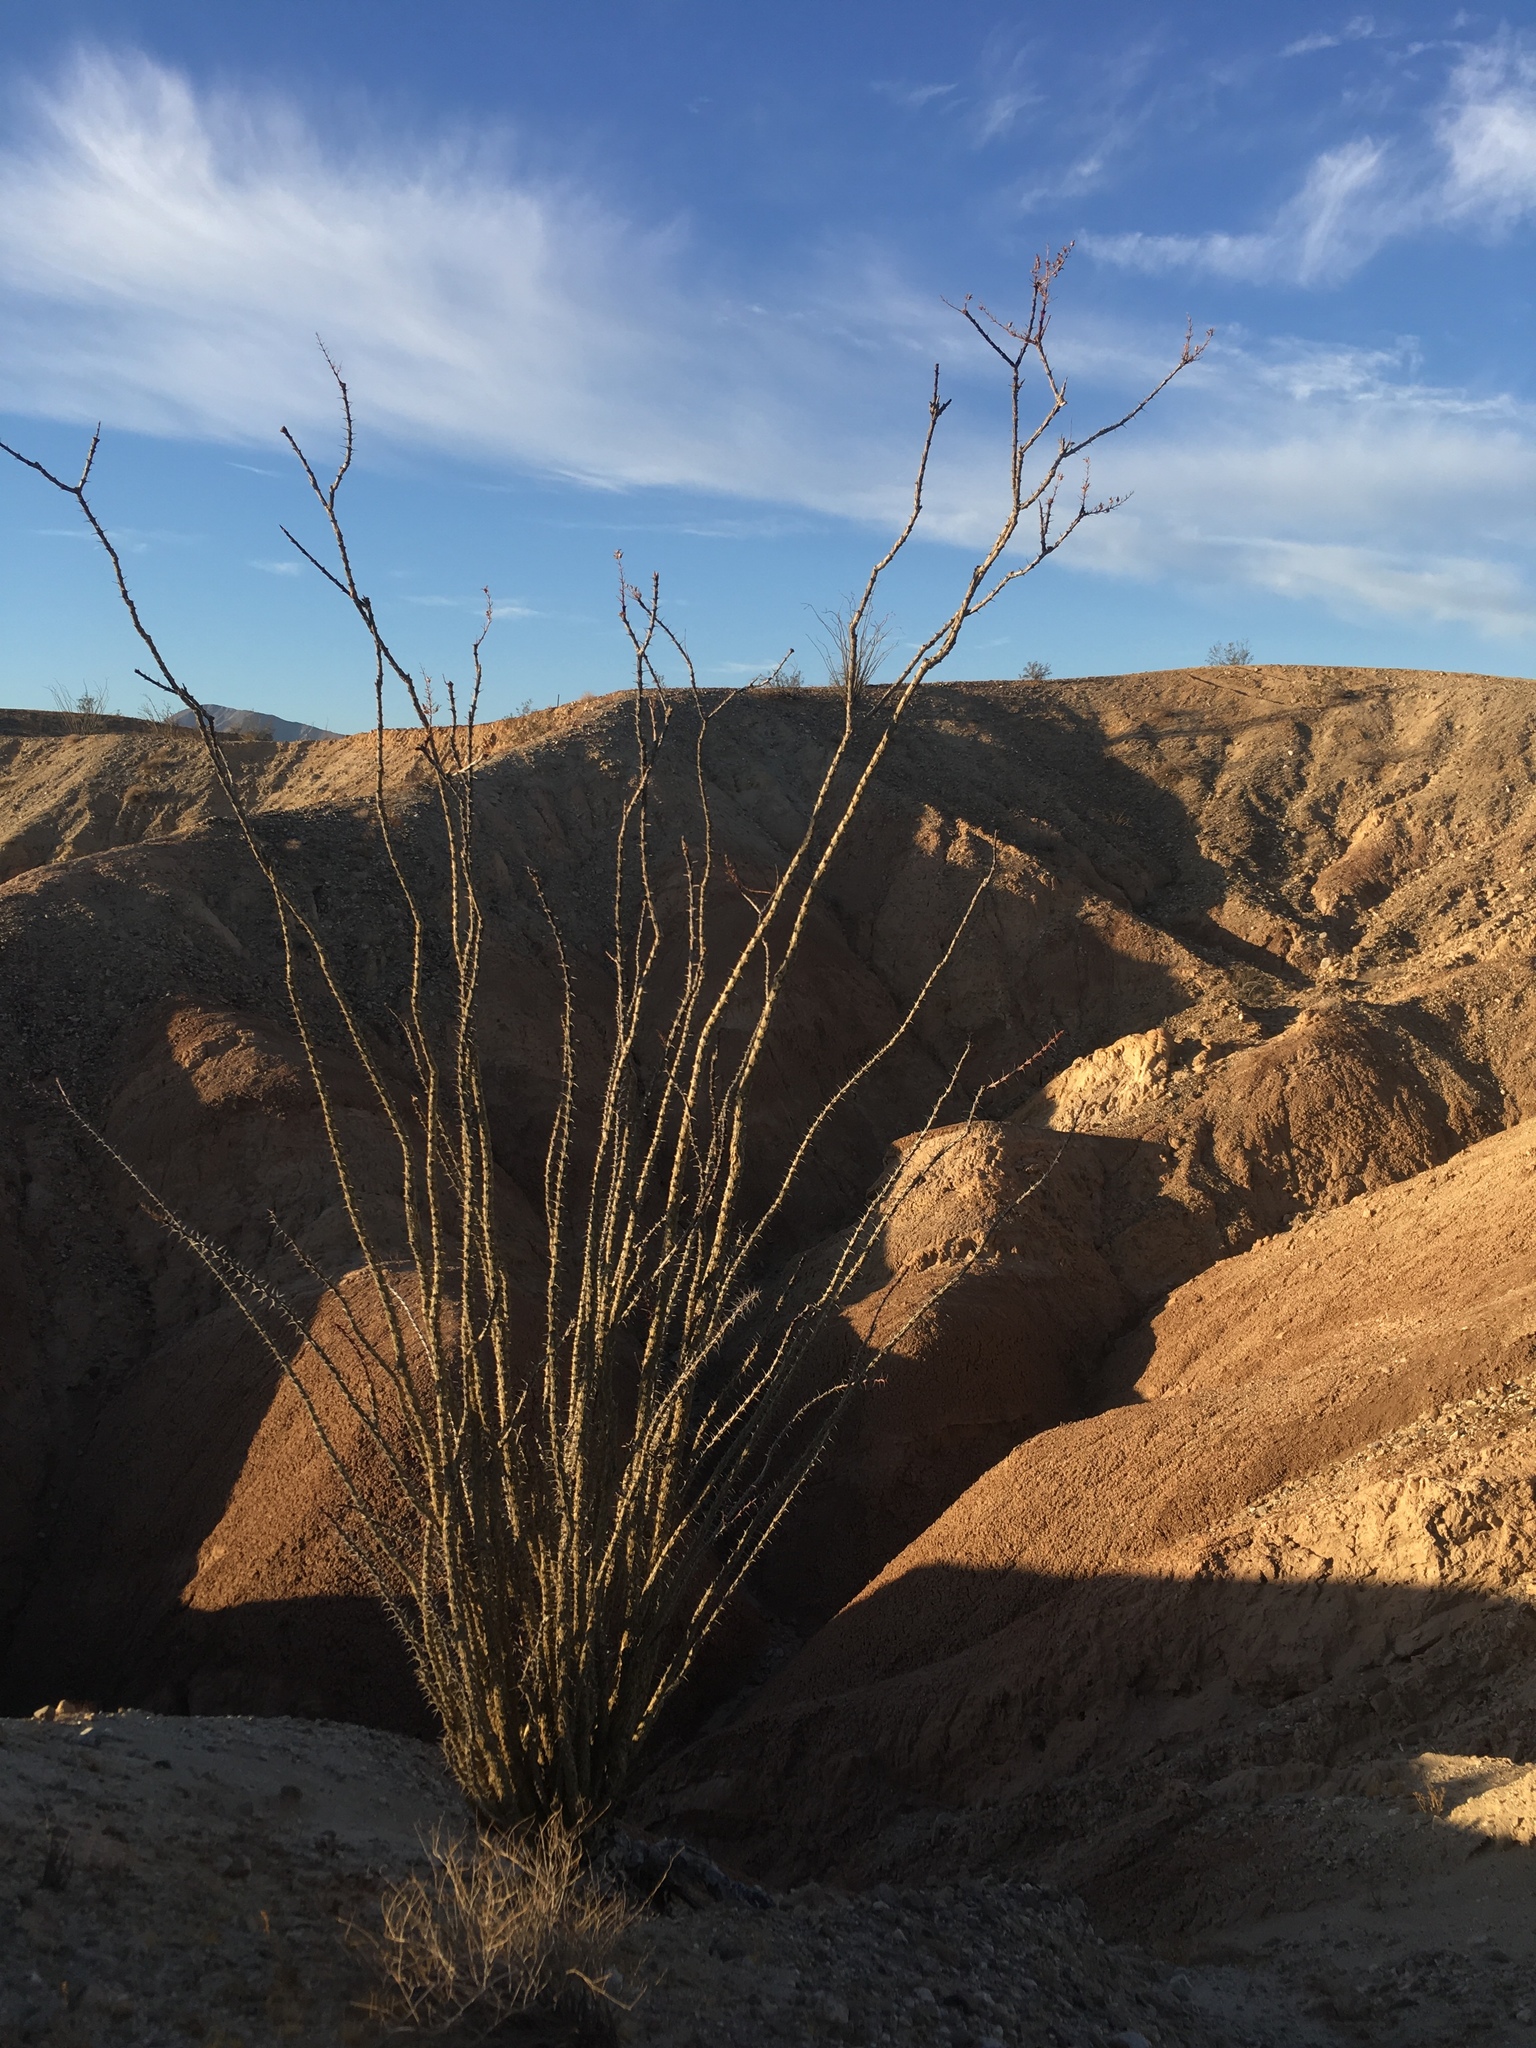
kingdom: Plantae
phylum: Tracheophyta
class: Magnoliopsida
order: Ericales
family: Fouquieriaceae
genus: Fouquieria
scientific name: Fouquieria splendens
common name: Vine-cactus
